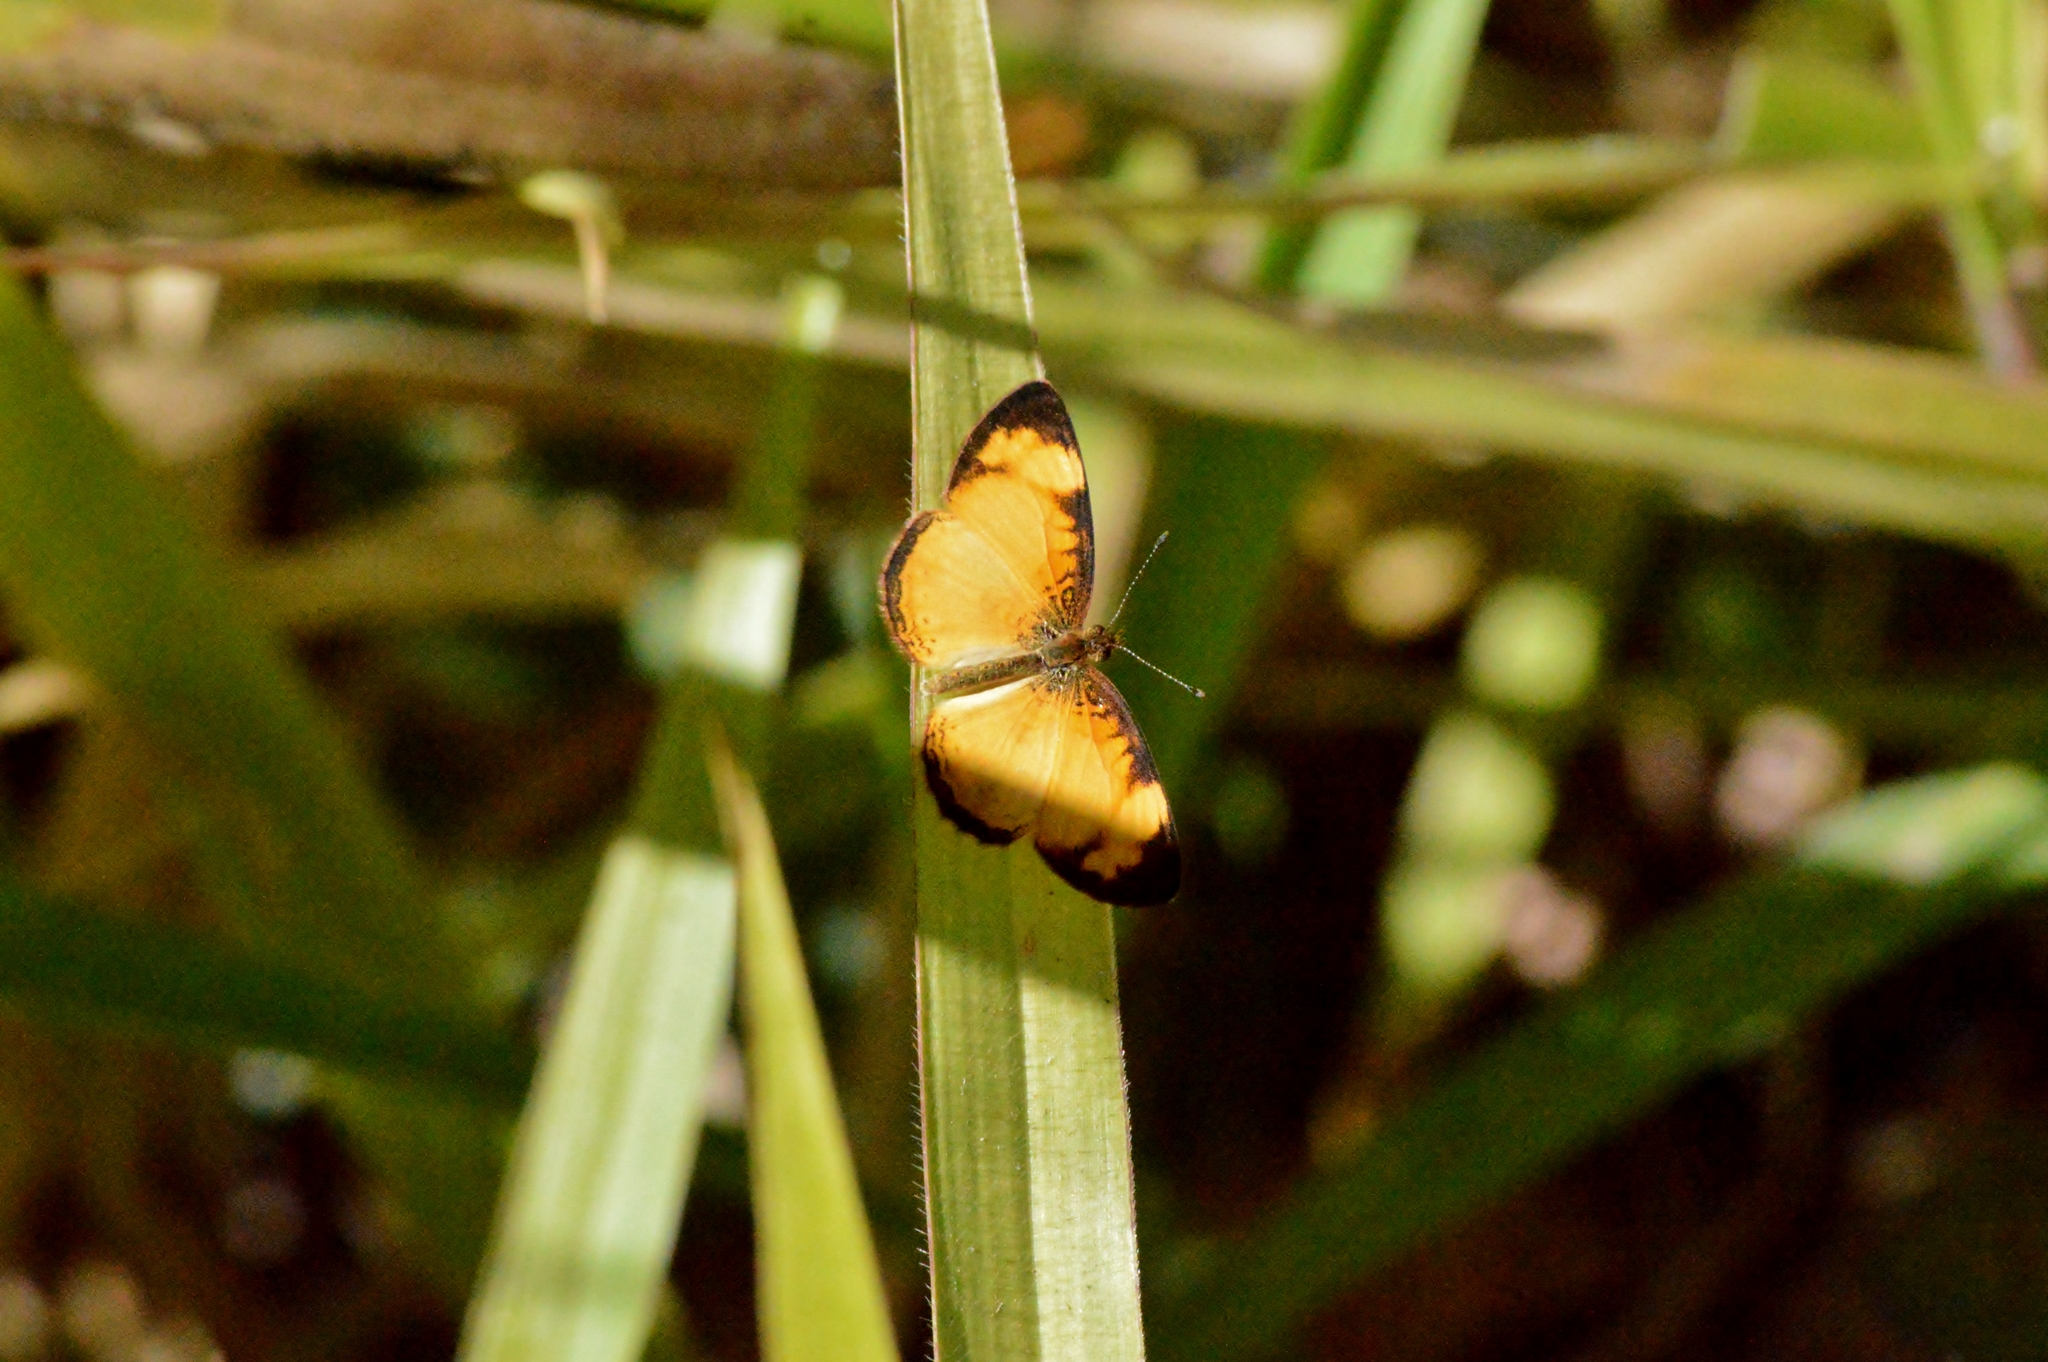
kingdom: Animalia
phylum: Arthropoda
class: Insecta
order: Lepidoptera
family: Nymphalidae
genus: Tegosa
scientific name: Tegosa claudina
